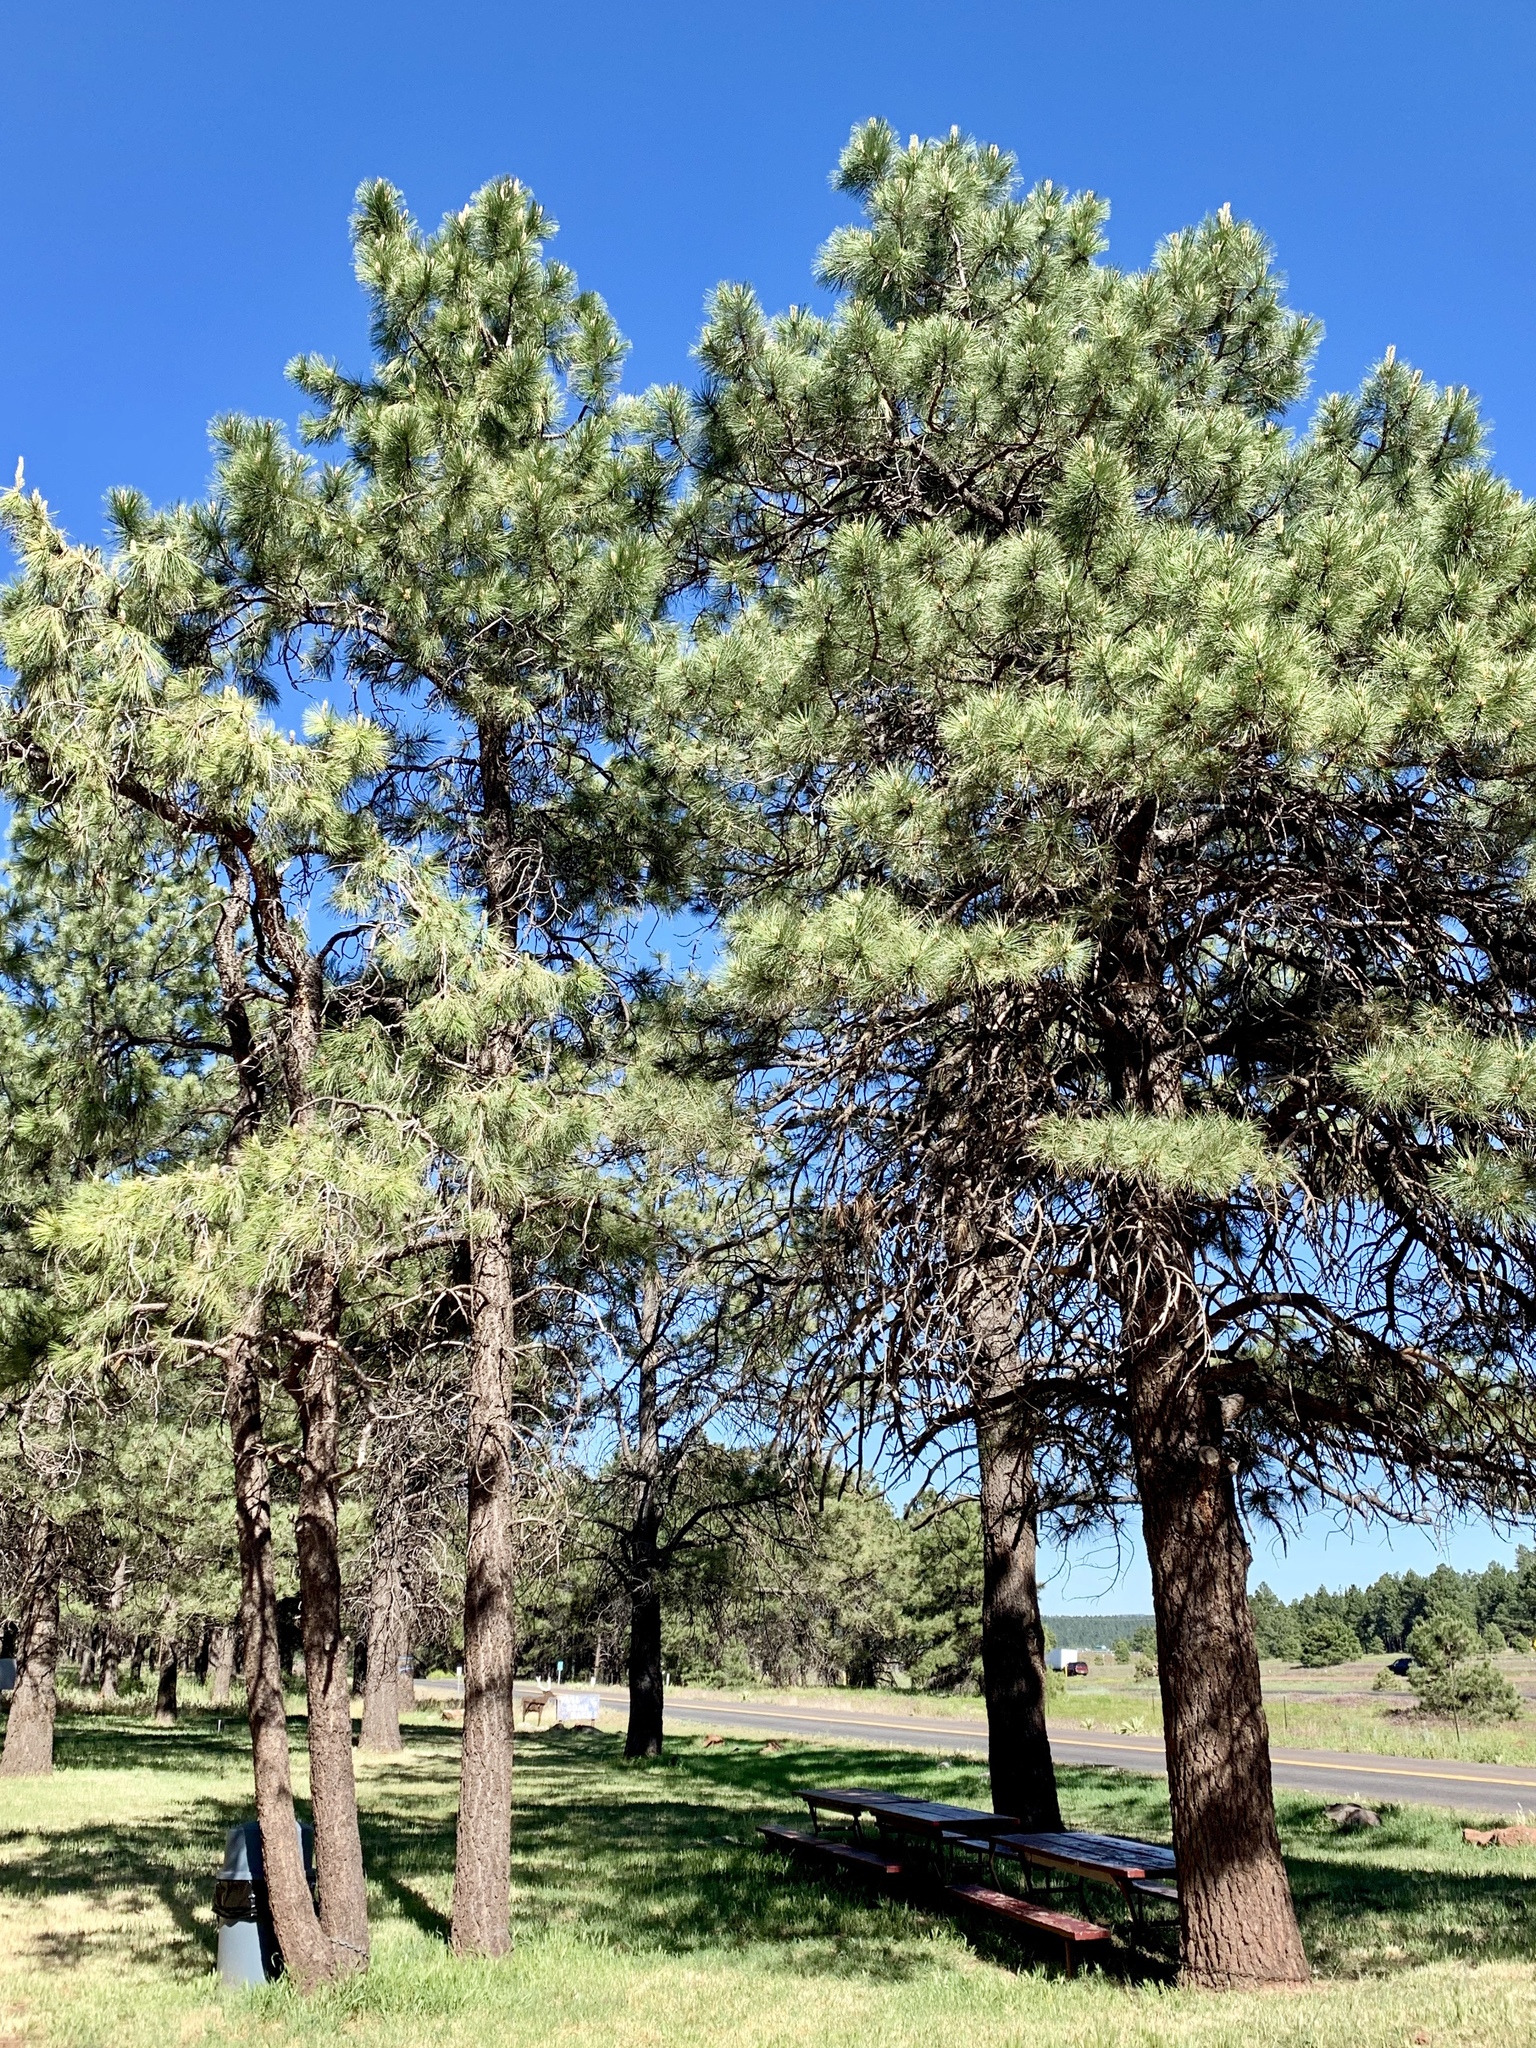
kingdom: Plantae
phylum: Tracheophyta
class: Pinopsida
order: Pinales
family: Pinaceae
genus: Pinus
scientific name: Pinus ponderosa
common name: Western yellow-pine
